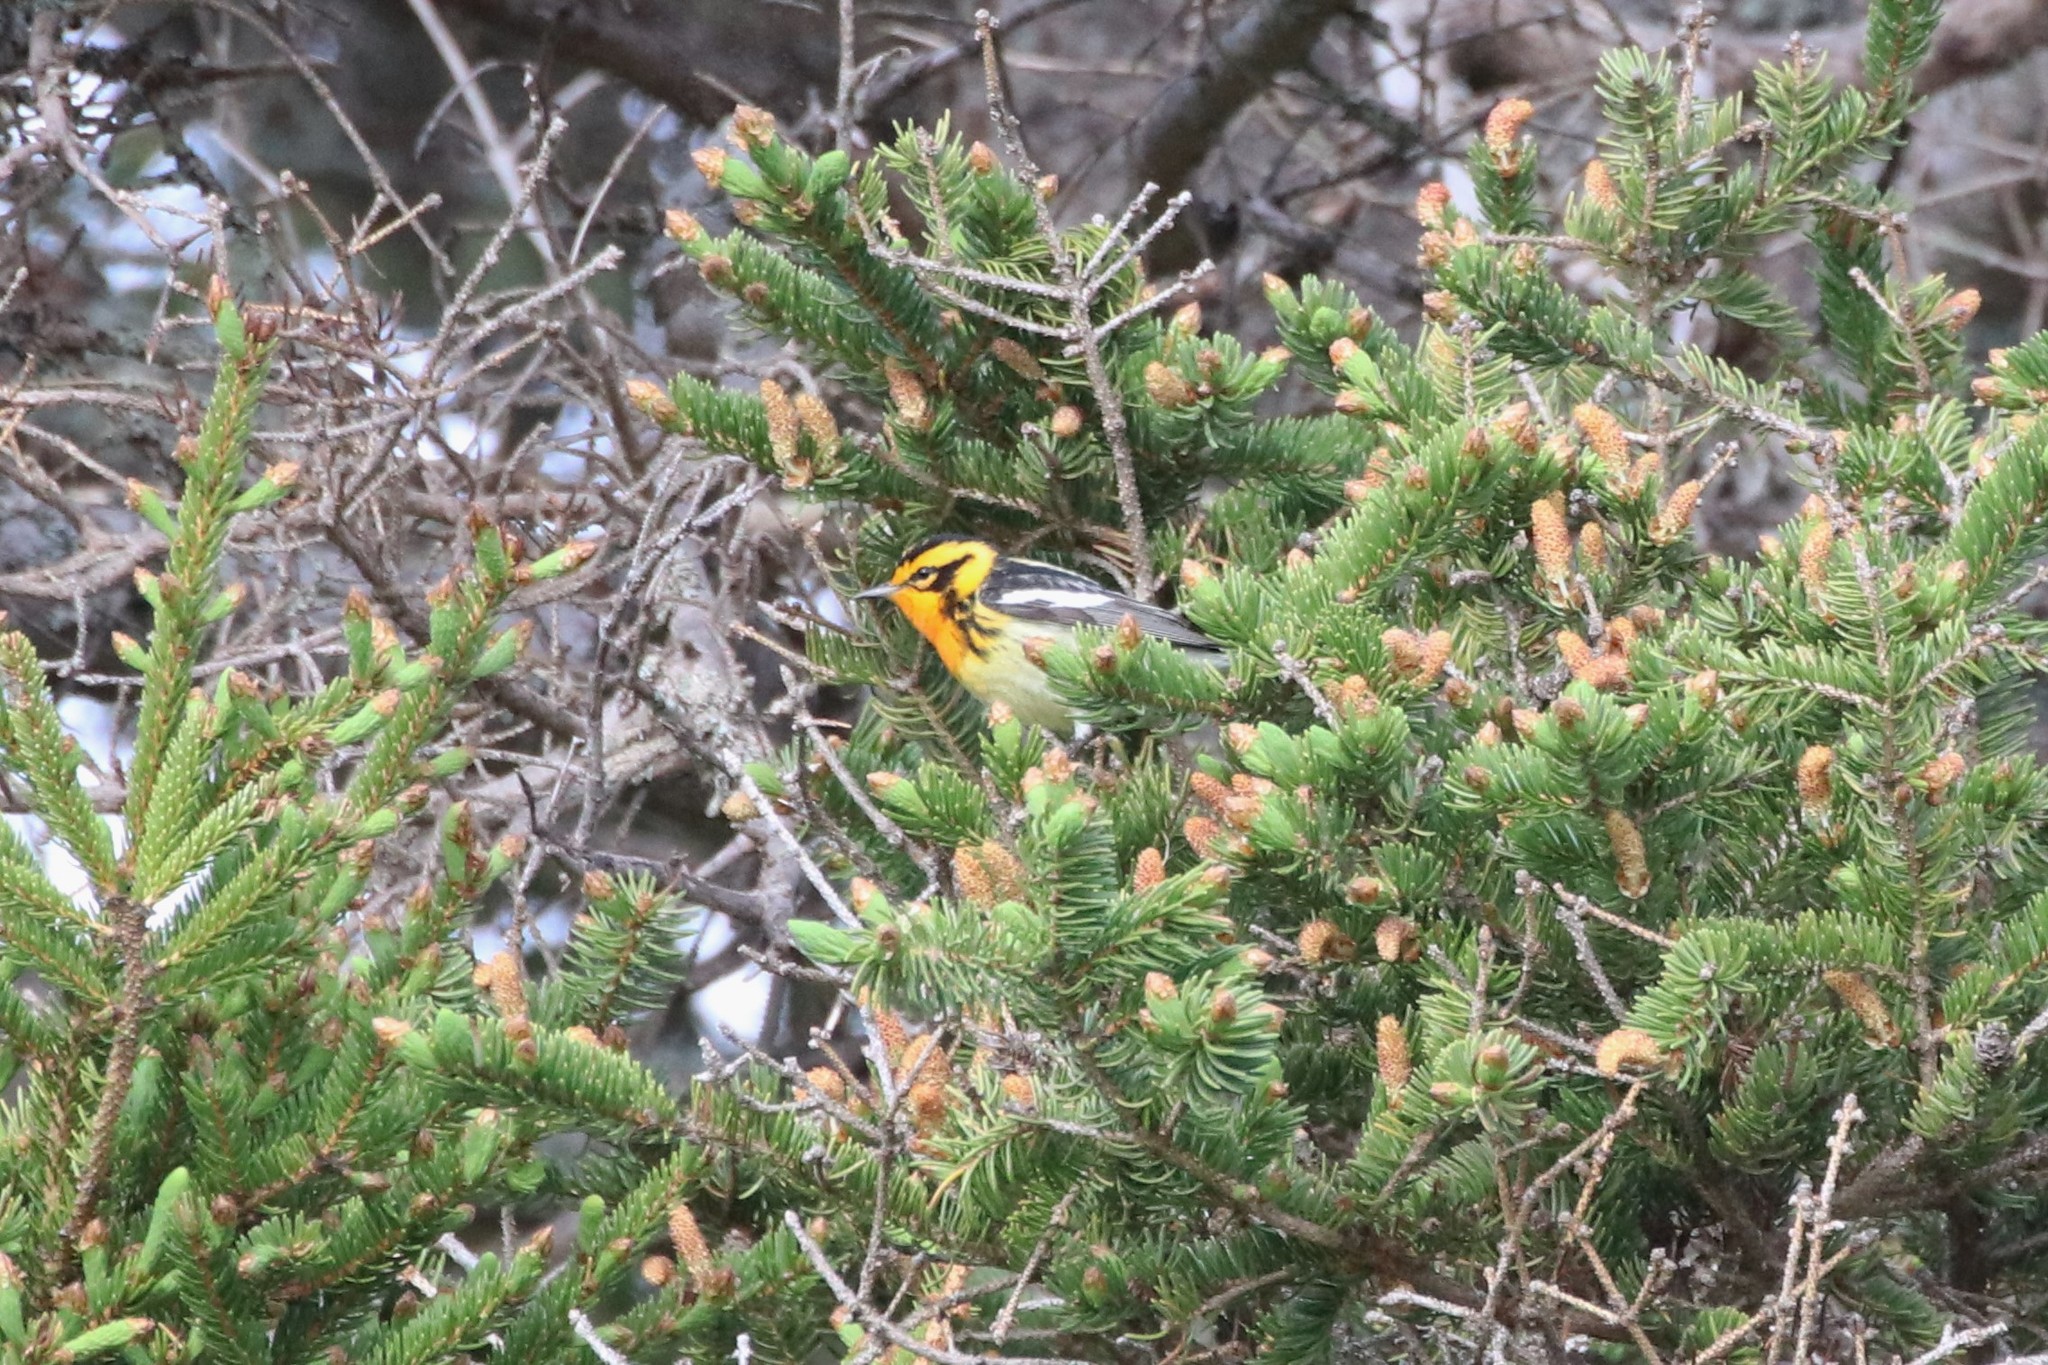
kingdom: Animalia
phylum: Chordata
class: Aves
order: Passeriformes
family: Parulidae
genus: Setophaga
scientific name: Setophaga fusca
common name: Blackburnian warbler
